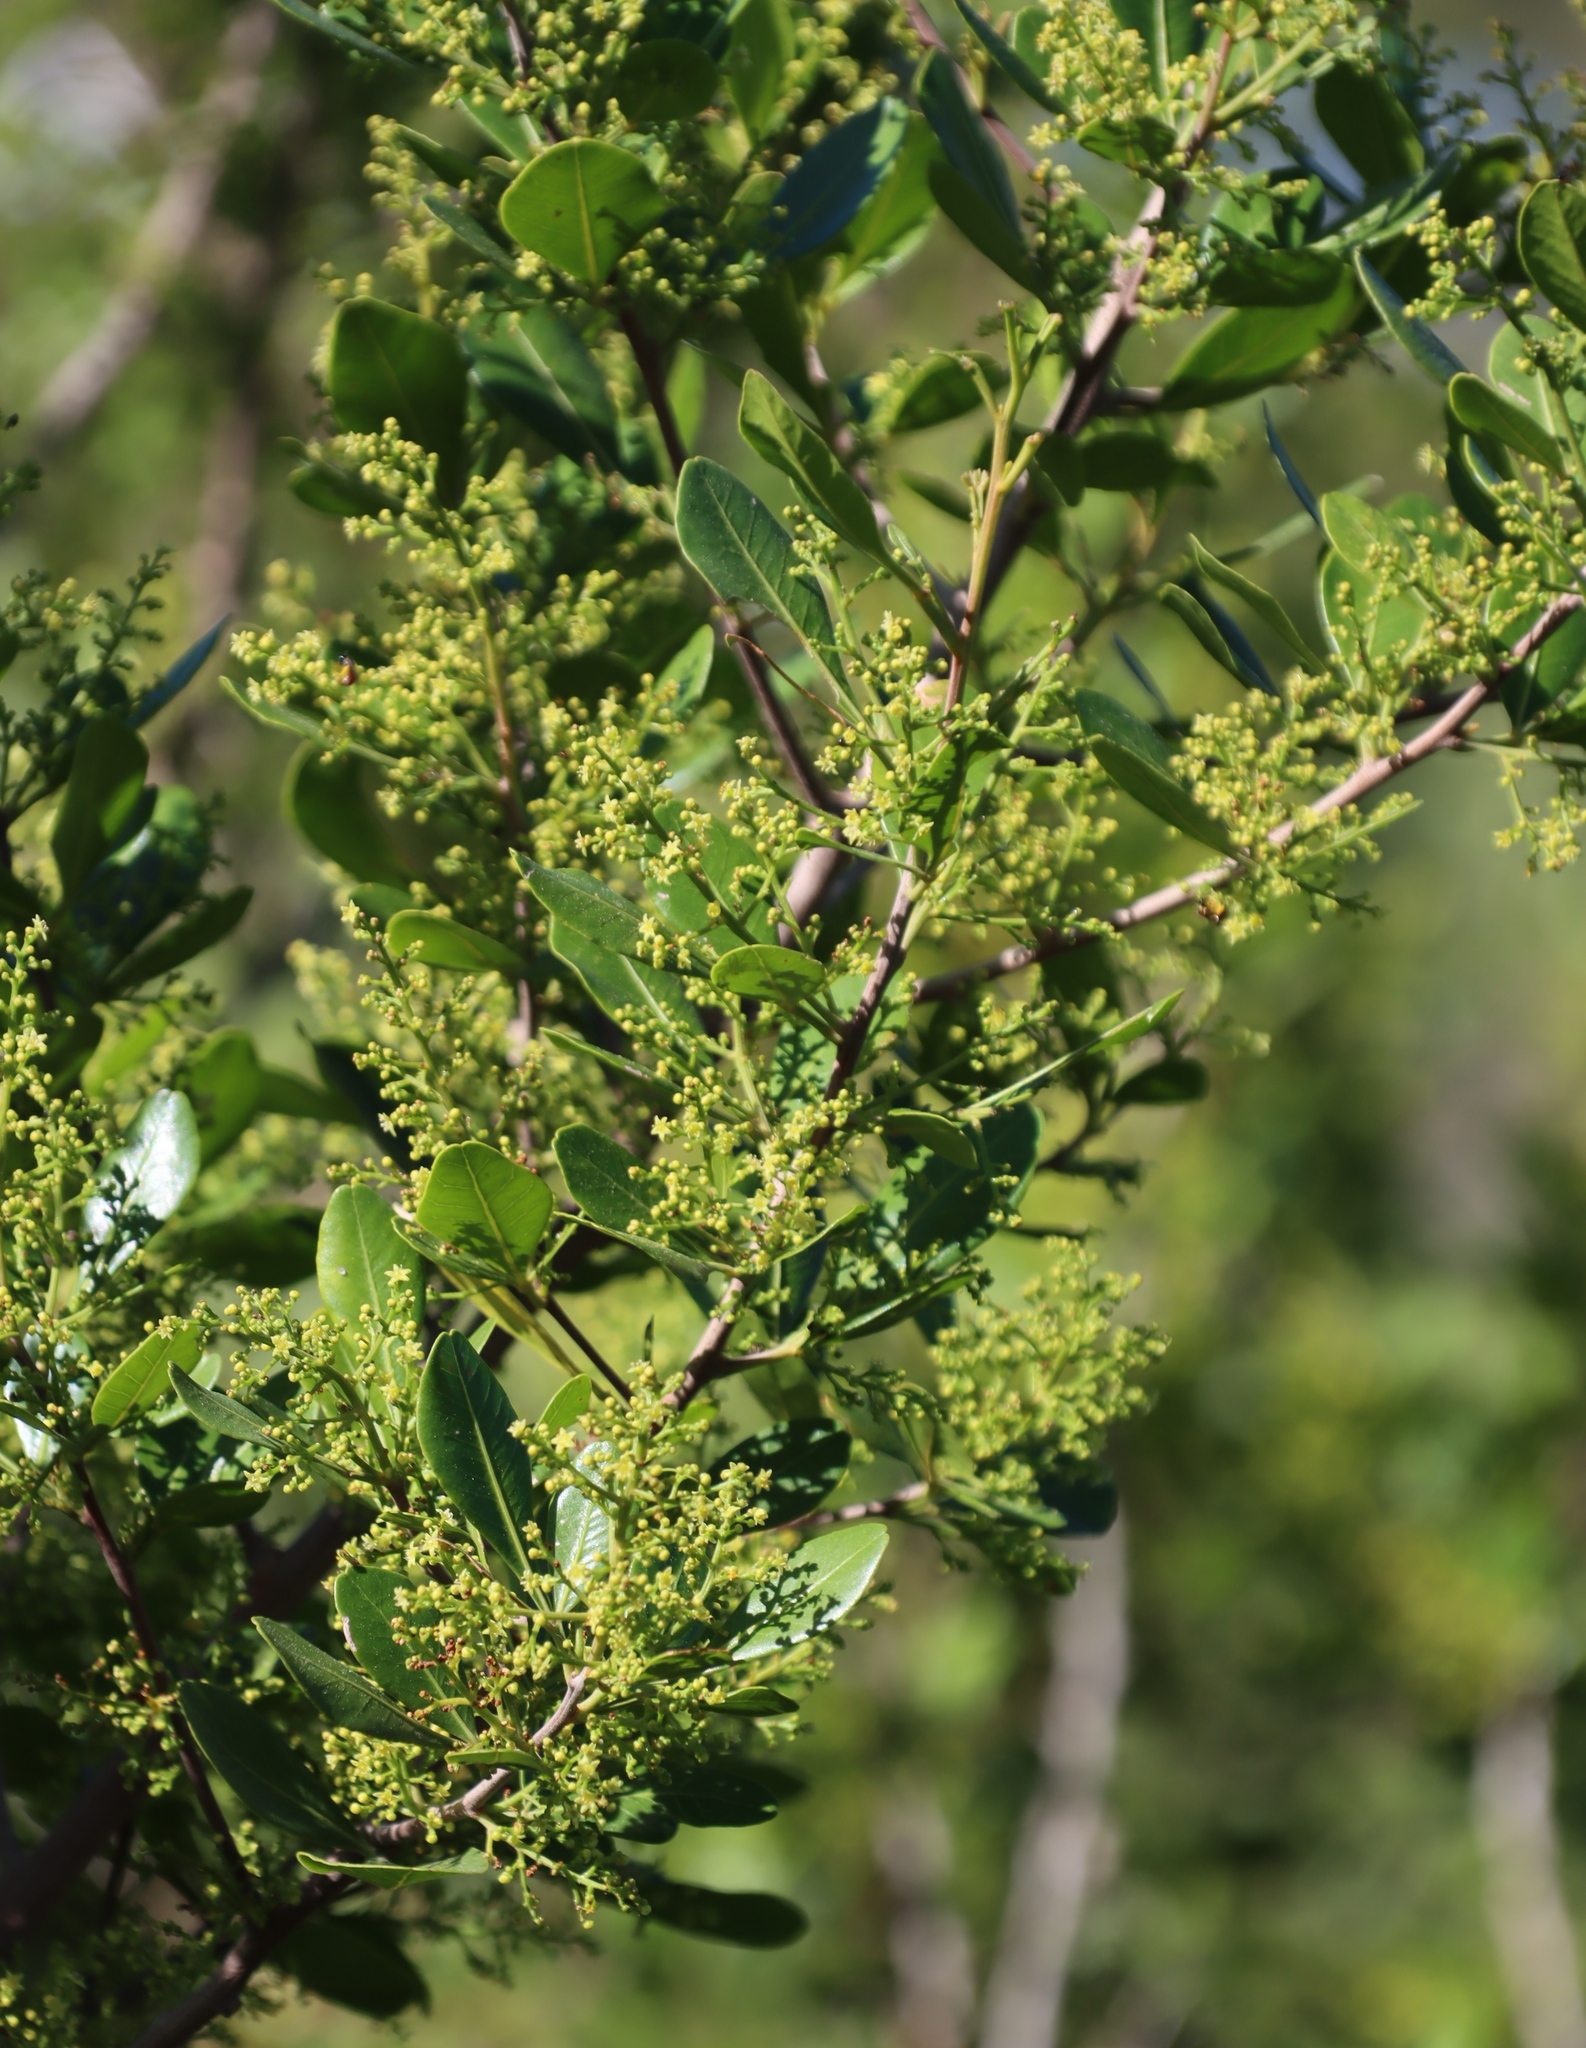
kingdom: Plantae
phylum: Tracheophyta
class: Magnoliopsida
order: Sapindales
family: Anacardiaceae
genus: Searsia
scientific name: Searsia lucida
